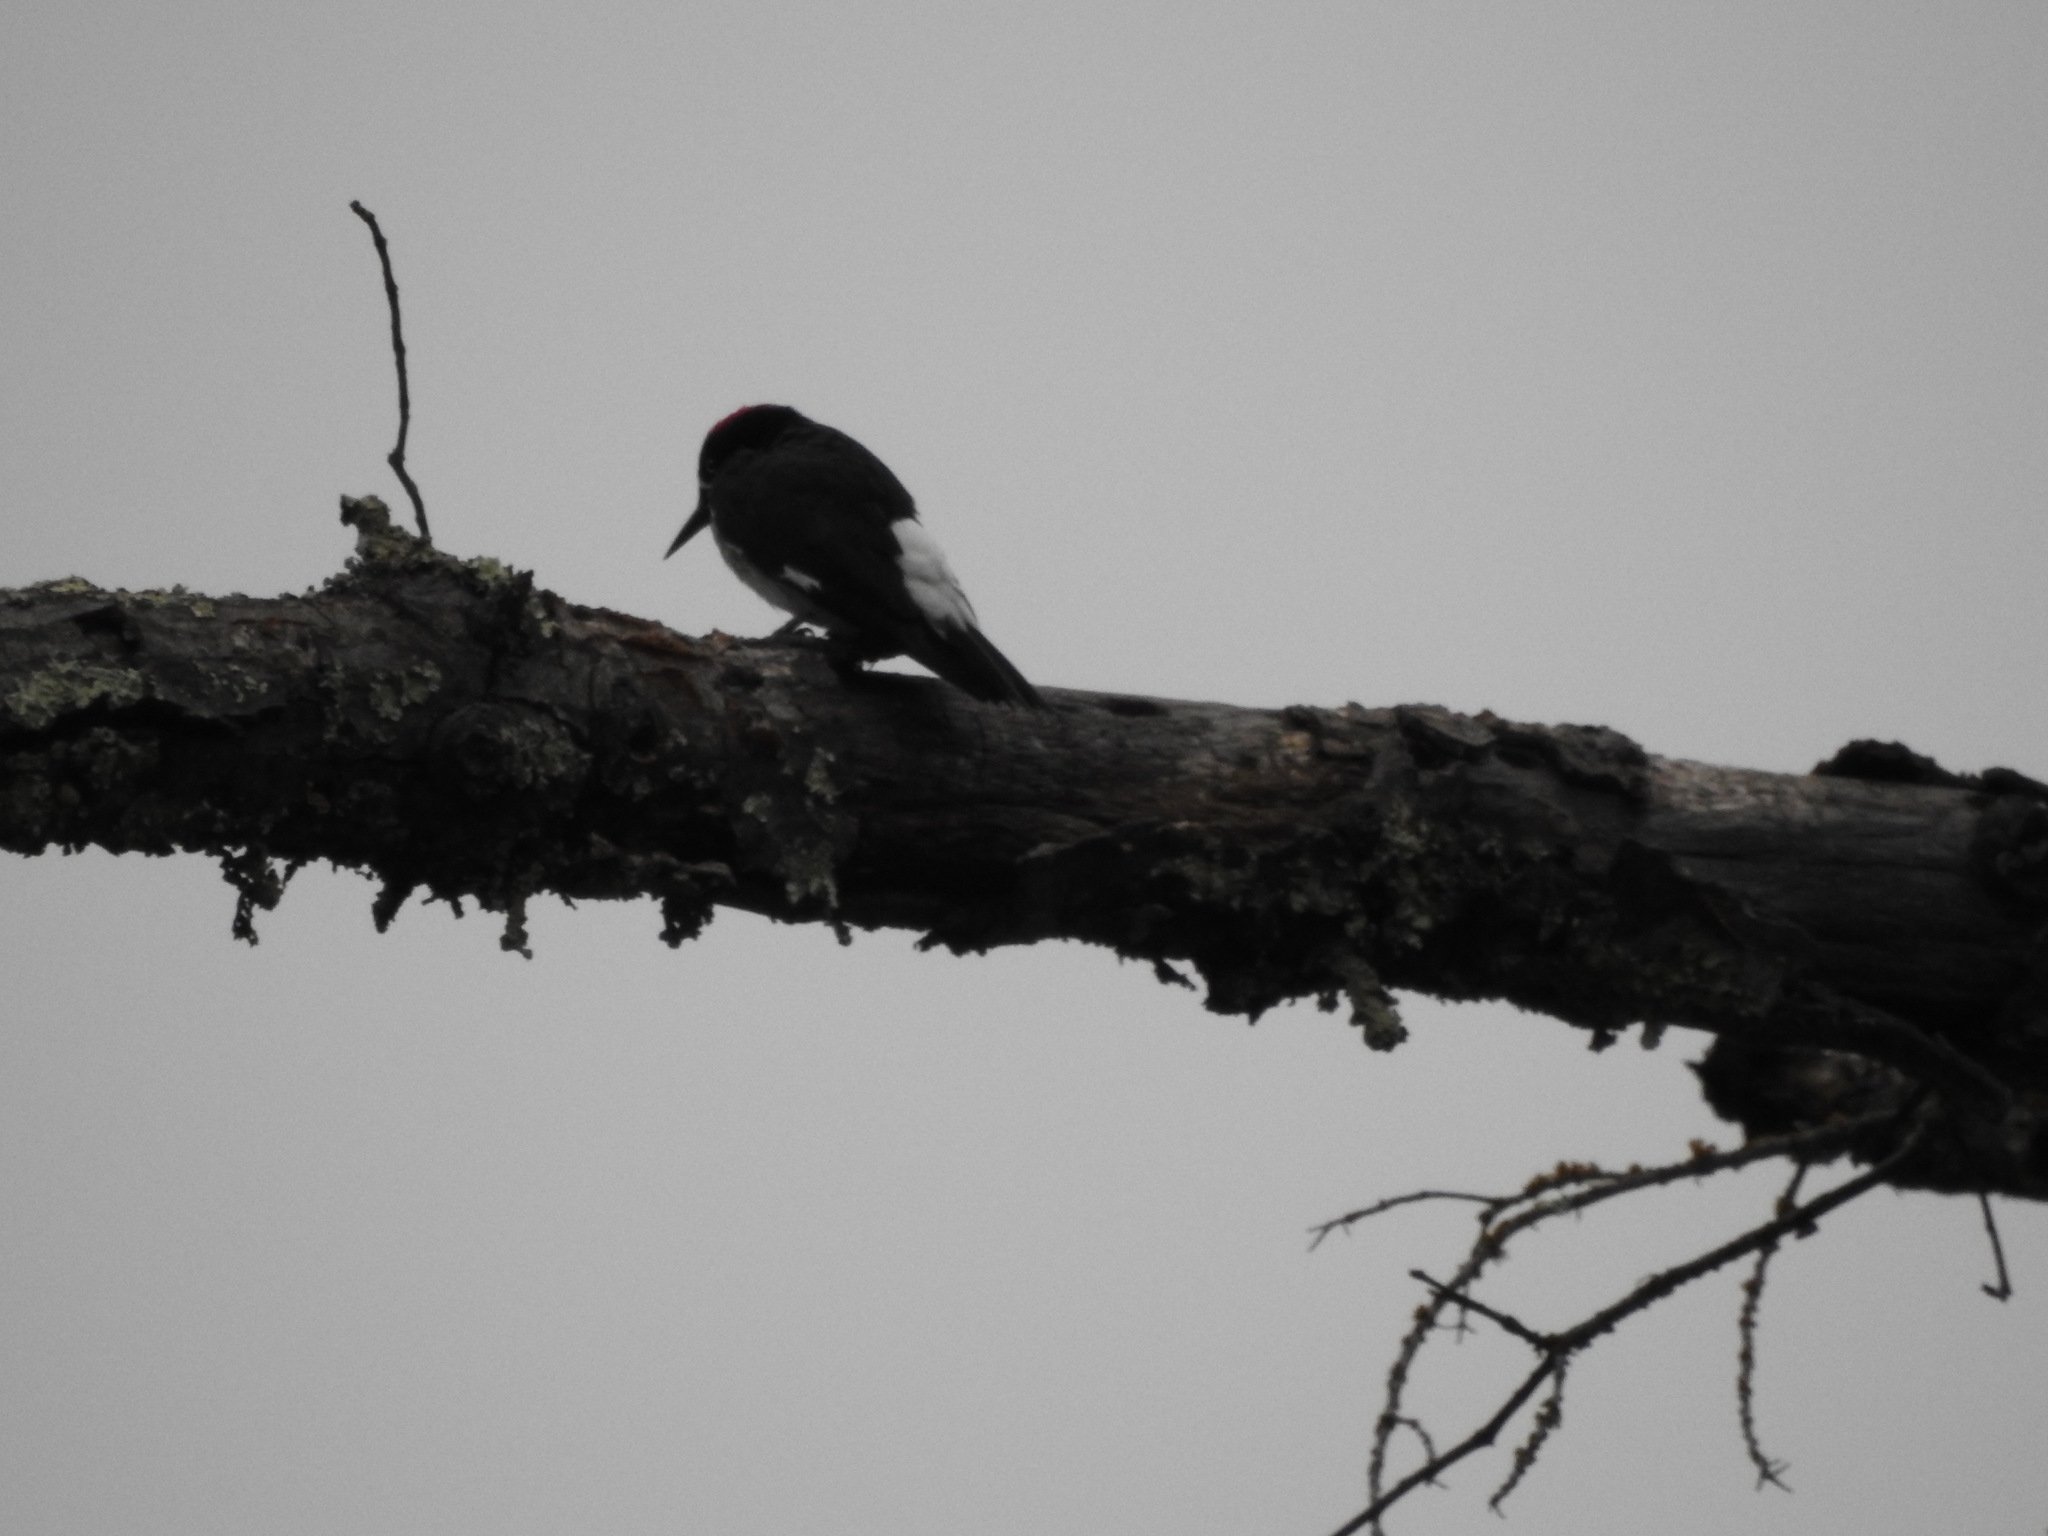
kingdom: Animalia
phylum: Chordata
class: Aves
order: Piciformes
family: Picidae
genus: Melanerpes
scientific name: Melanerpes formicivorus
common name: Acorn woodpecker
